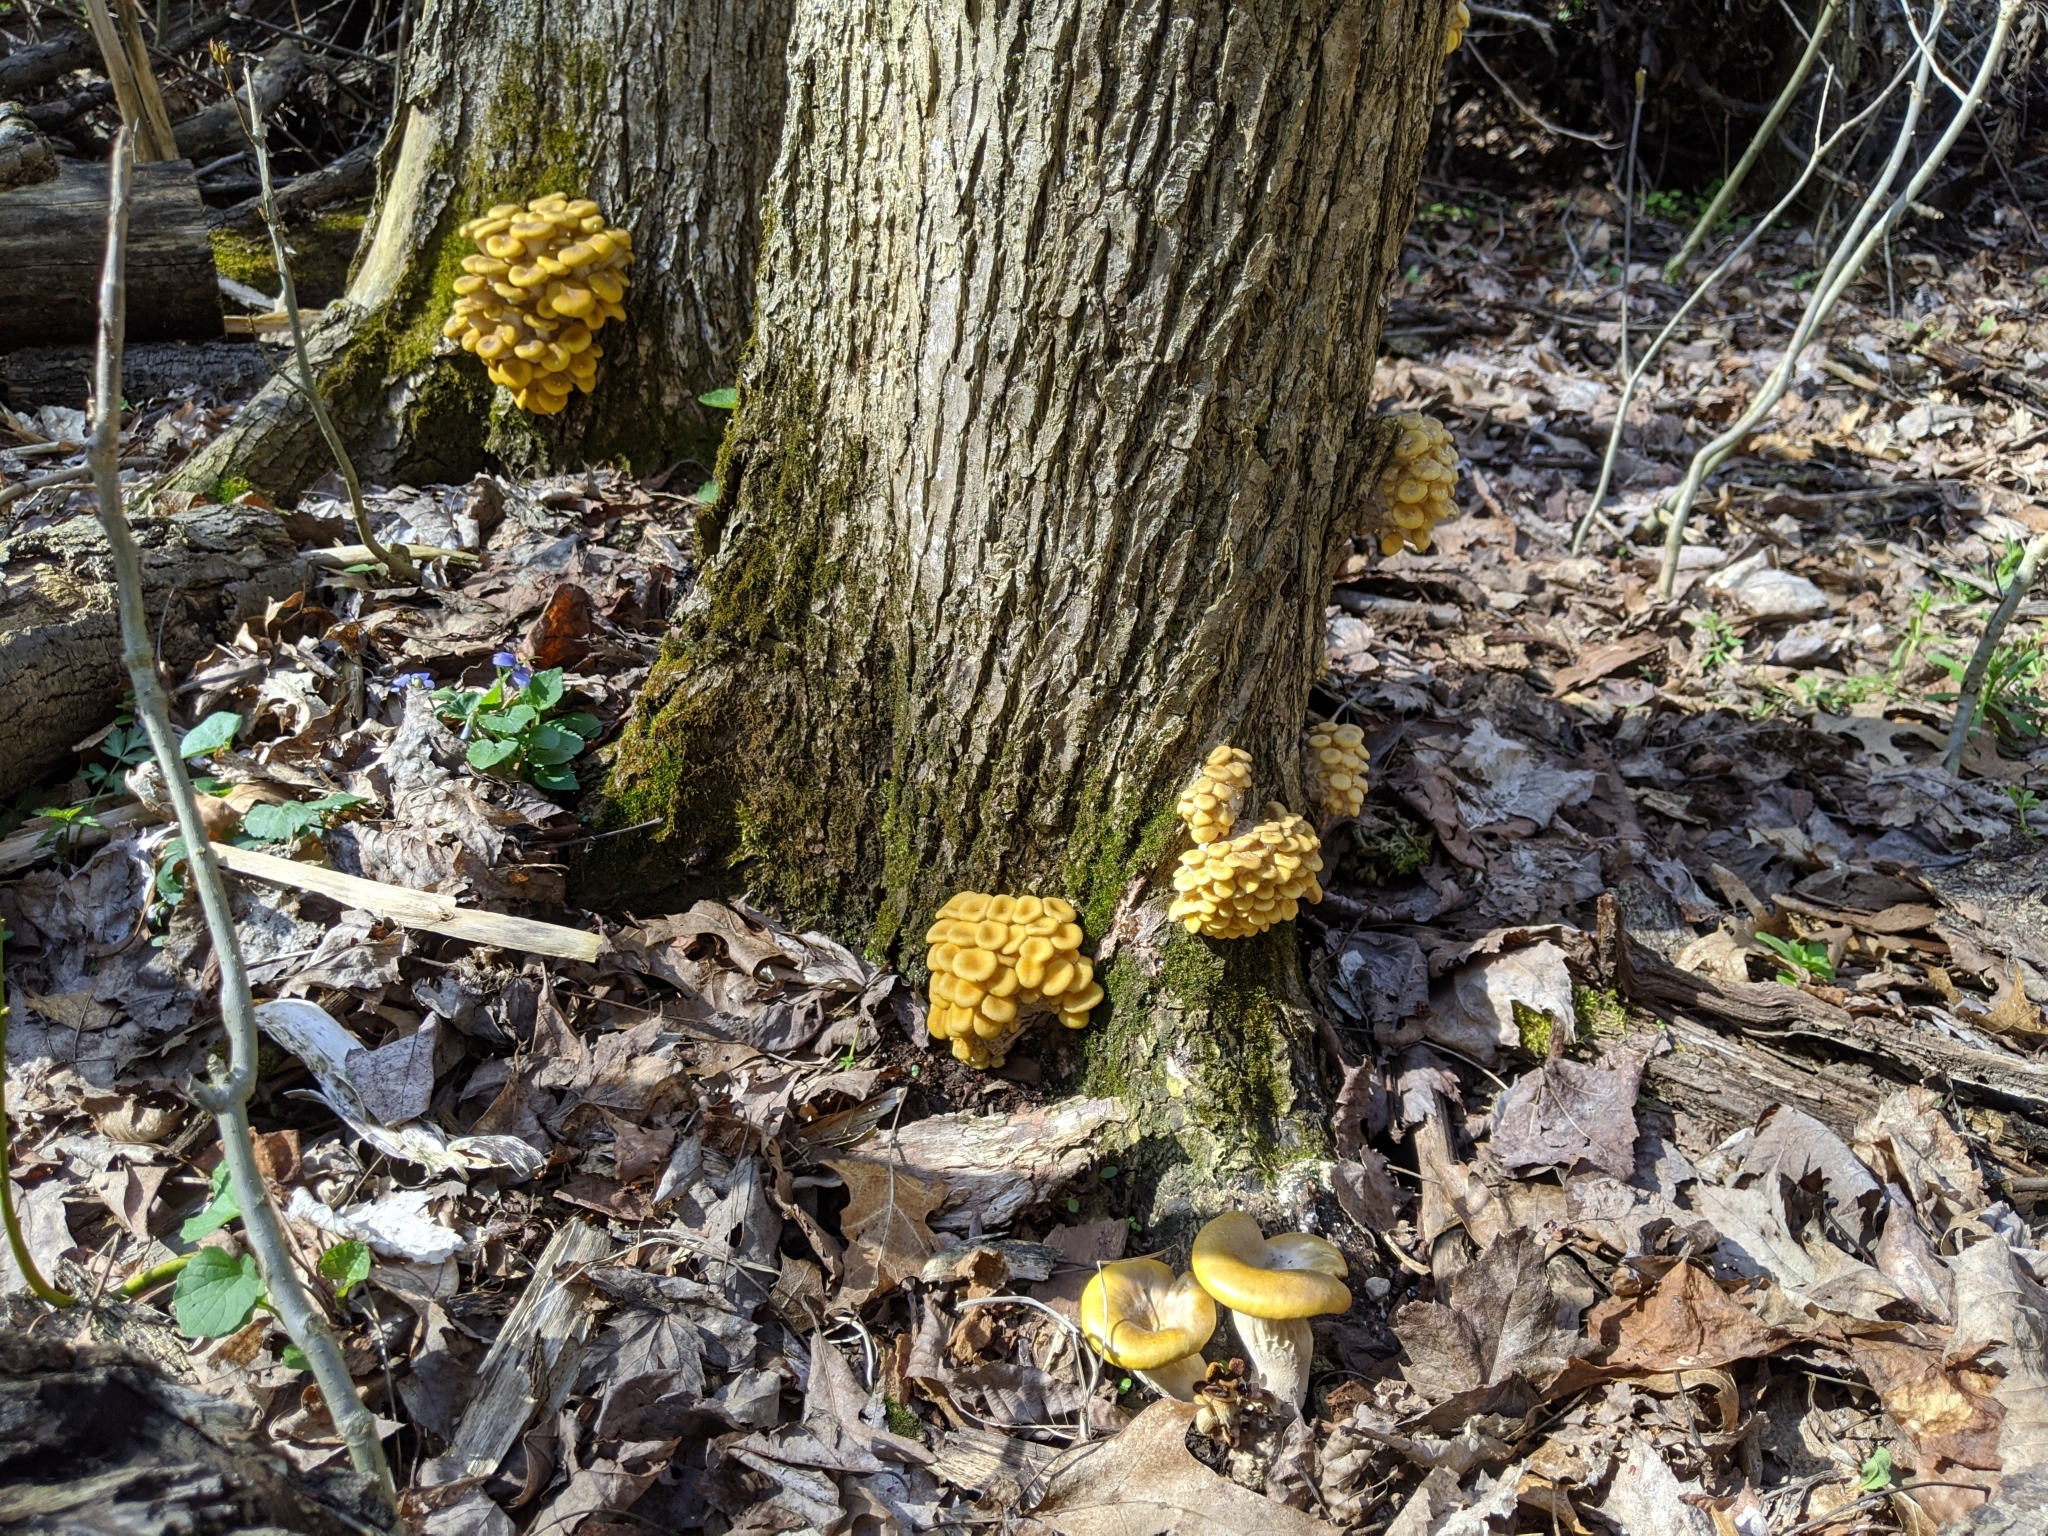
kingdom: Fungi
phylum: Basidiomycota
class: Agaricomycetes
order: Agaricales
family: Pleurotaceae
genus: Pleurotus
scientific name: Pleurotus citrinopileatus
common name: Golden oyster mushroom
